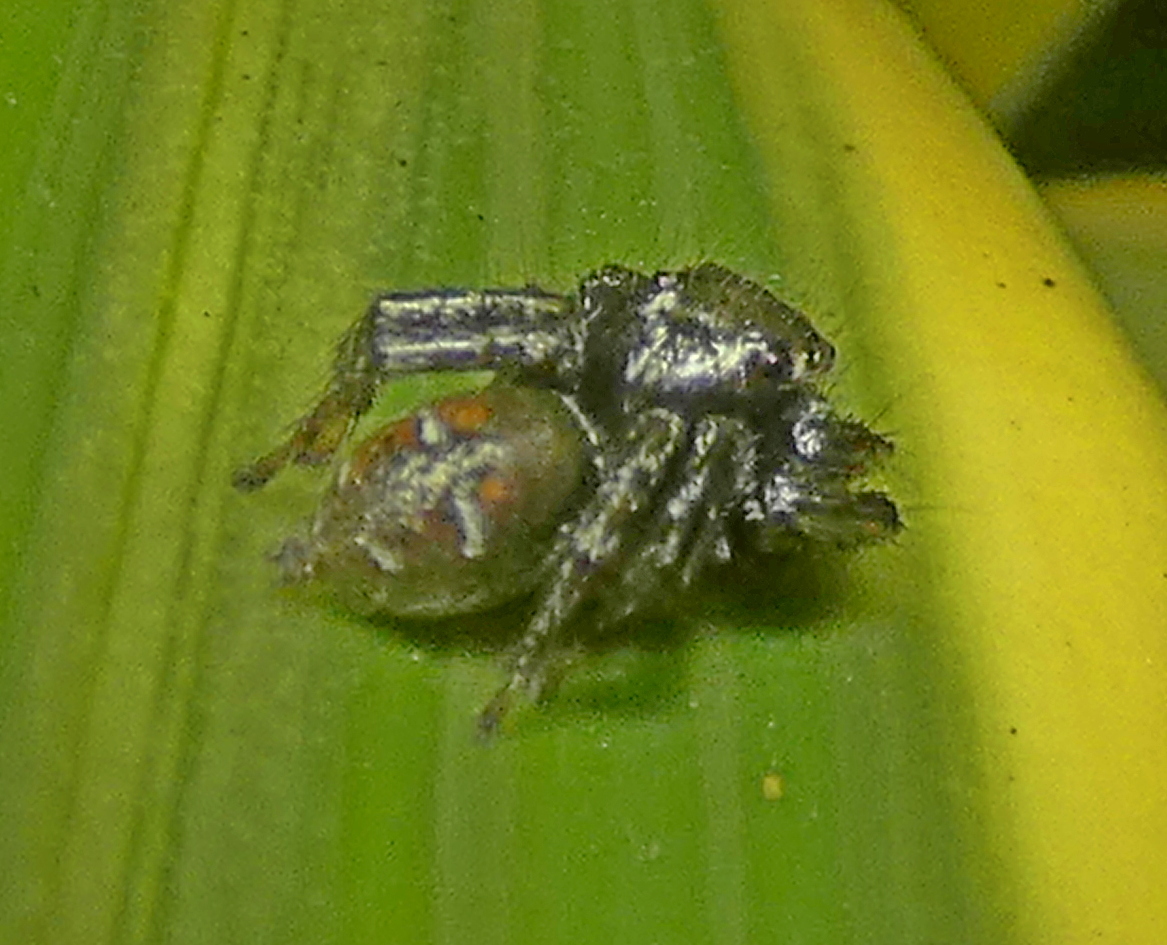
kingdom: Animalia
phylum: Arthropoda
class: Arachnida
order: Araneae
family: Salticidae
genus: Corythalia
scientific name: Corythalia spiralis
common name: Jumping spiders
